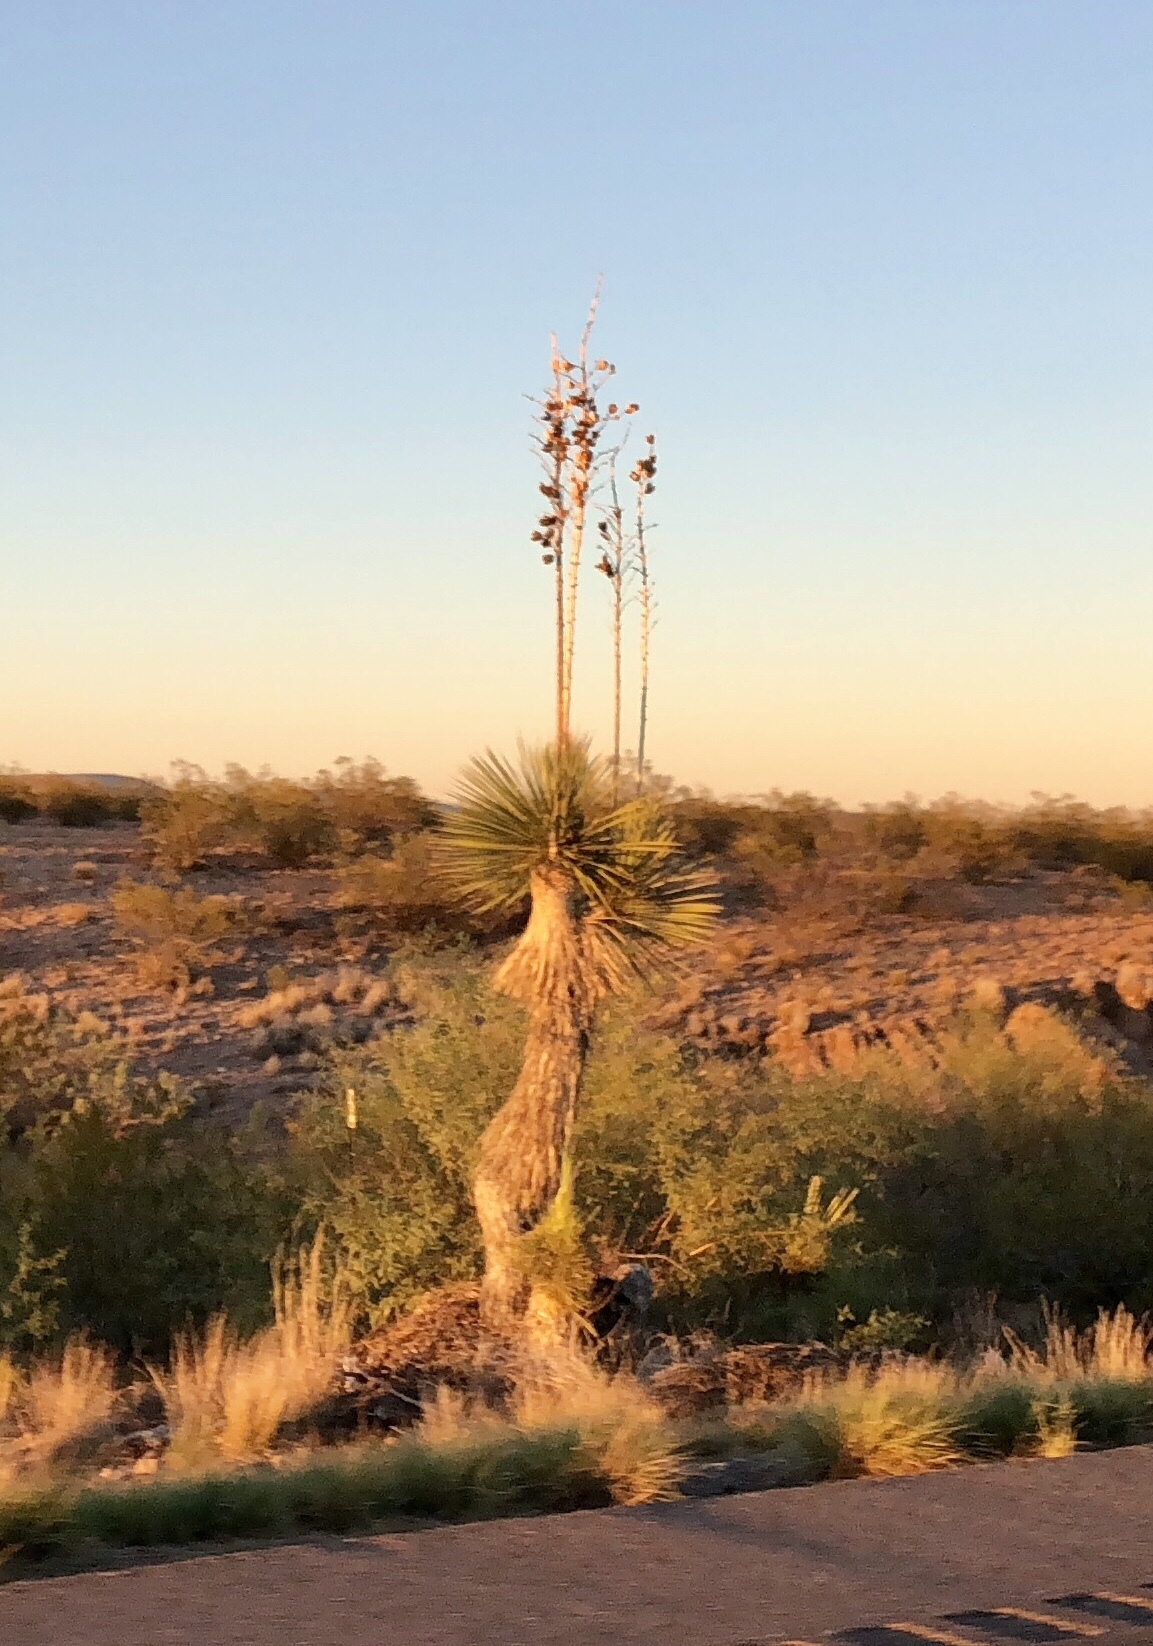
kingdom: Plantae
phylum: Tracheophyta
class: Liliopsida
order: Asparagales
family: Asparagaceae
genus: Yucca
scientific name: Yucca elata
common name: Palmella
